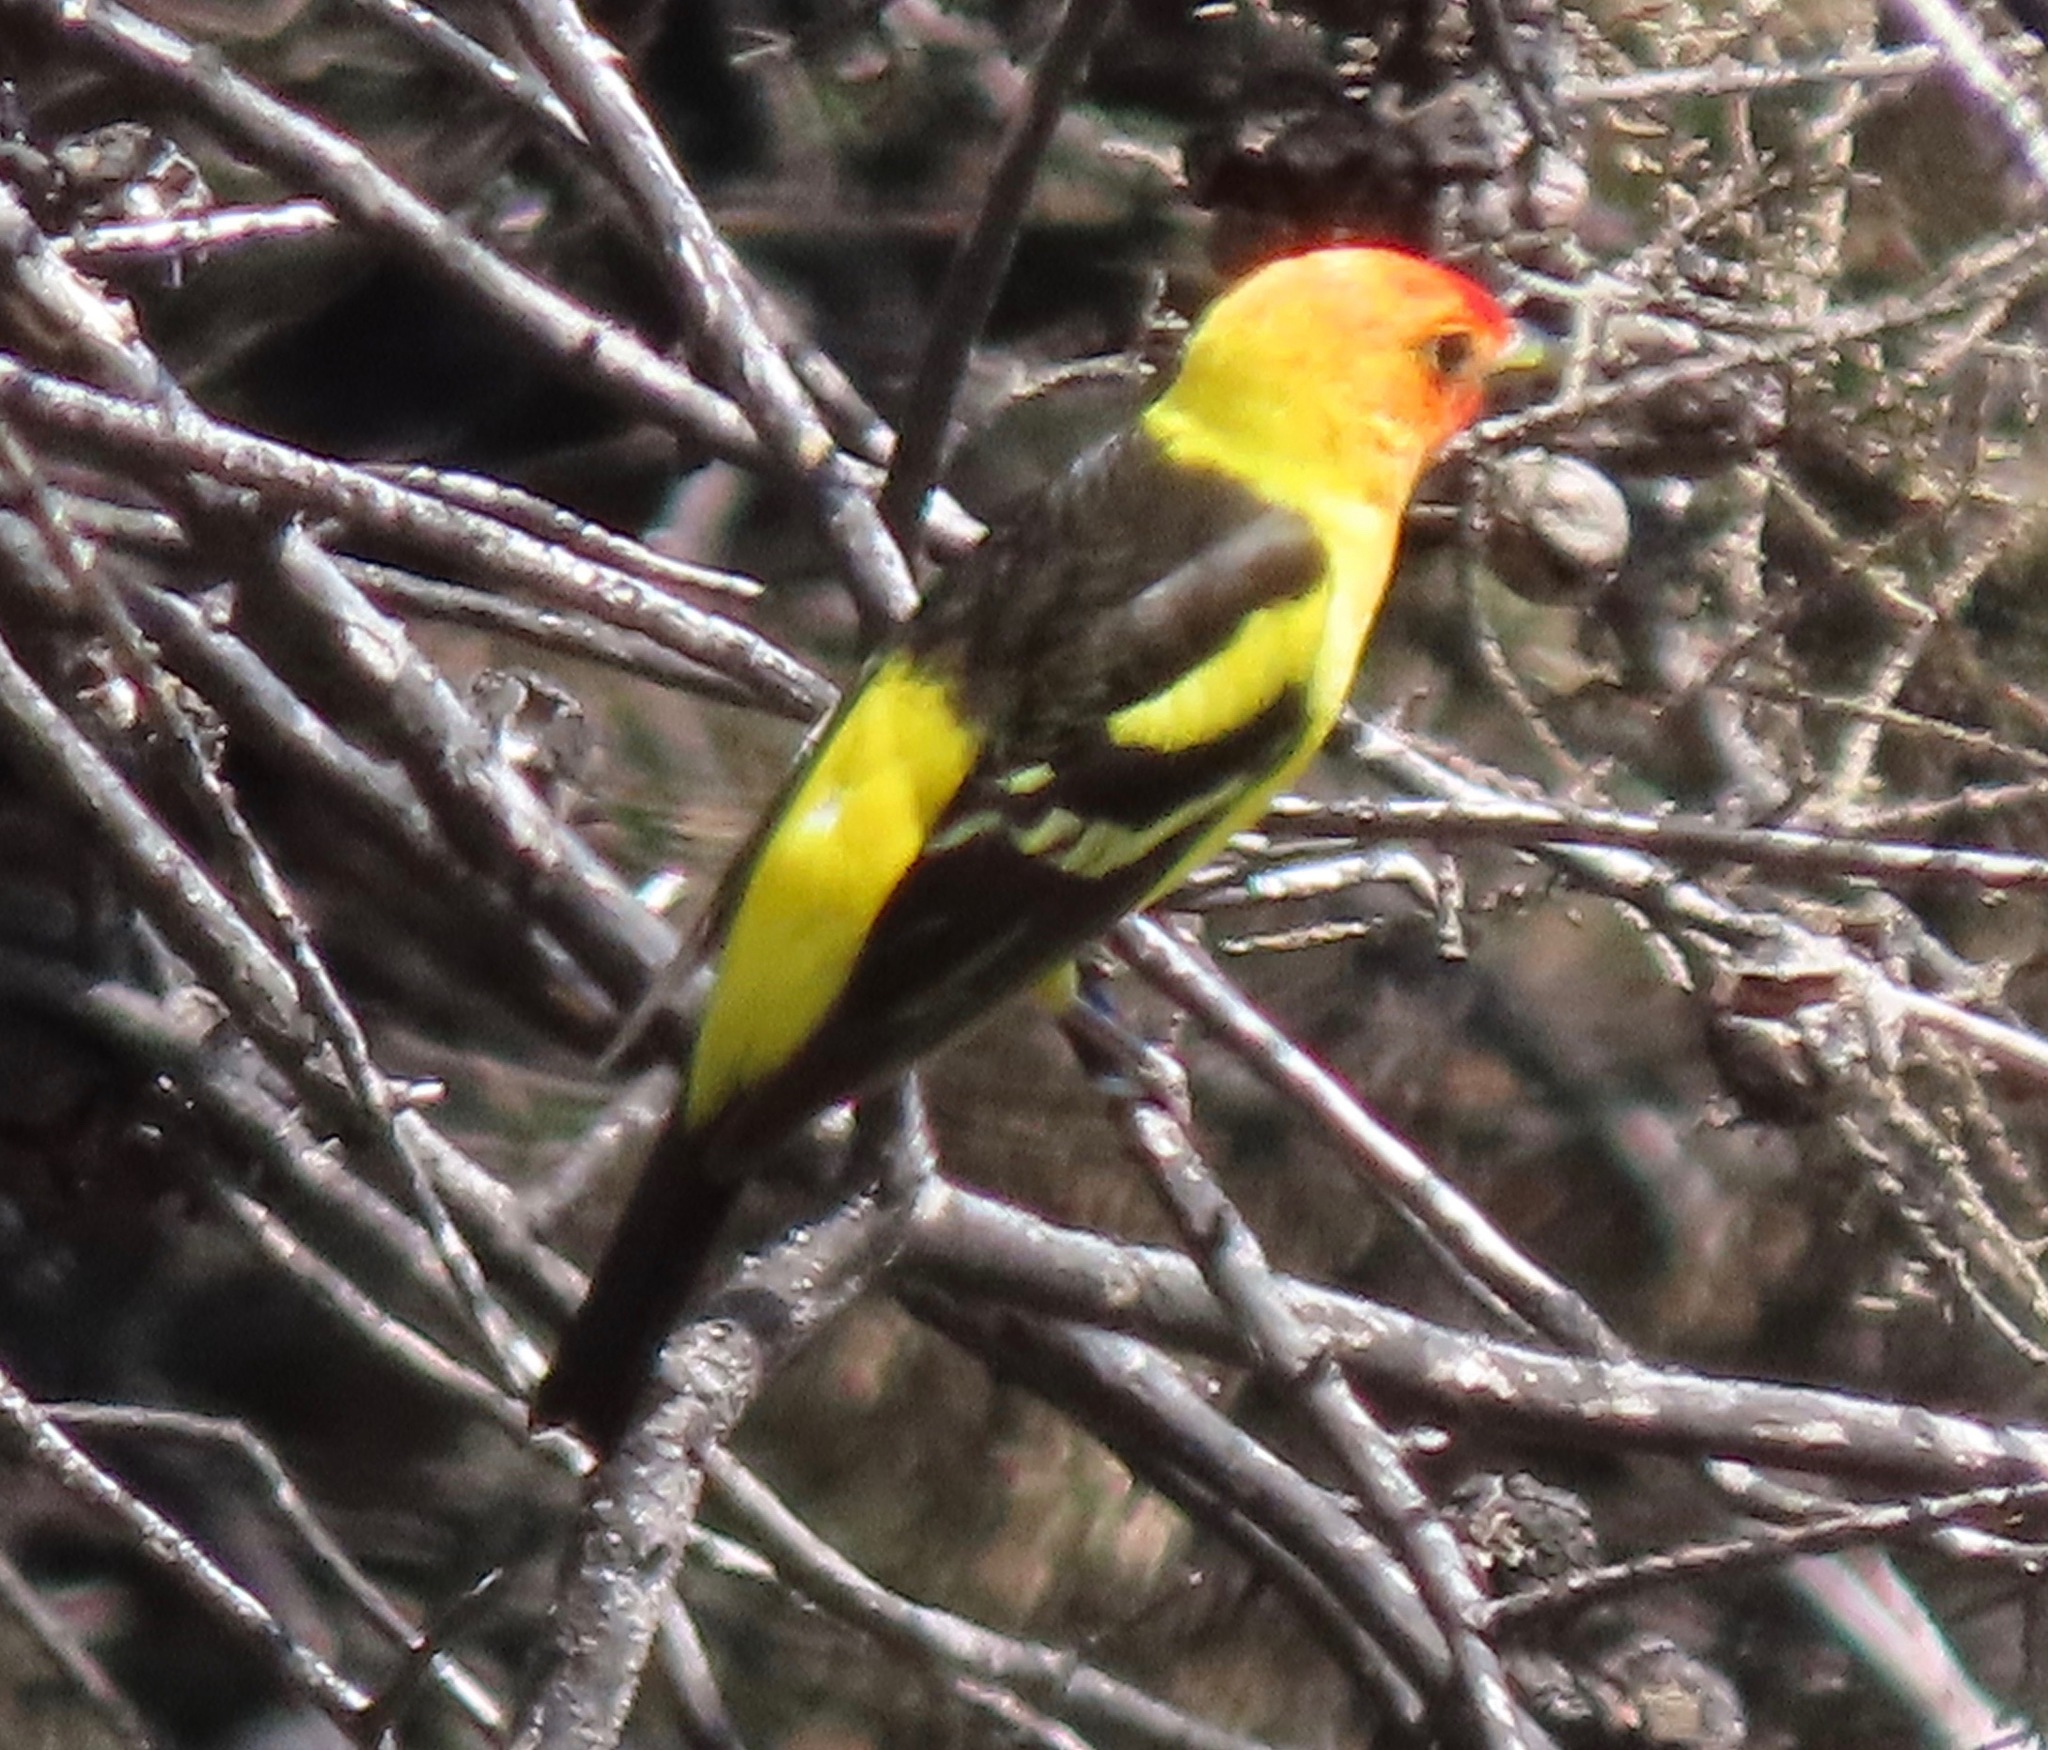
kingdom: Animalia
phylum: Chordata
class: Aves
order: Passeriformes
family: Cardinalidae
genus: Piranga
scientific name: Piranga ludoviciana
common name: Western tanager
